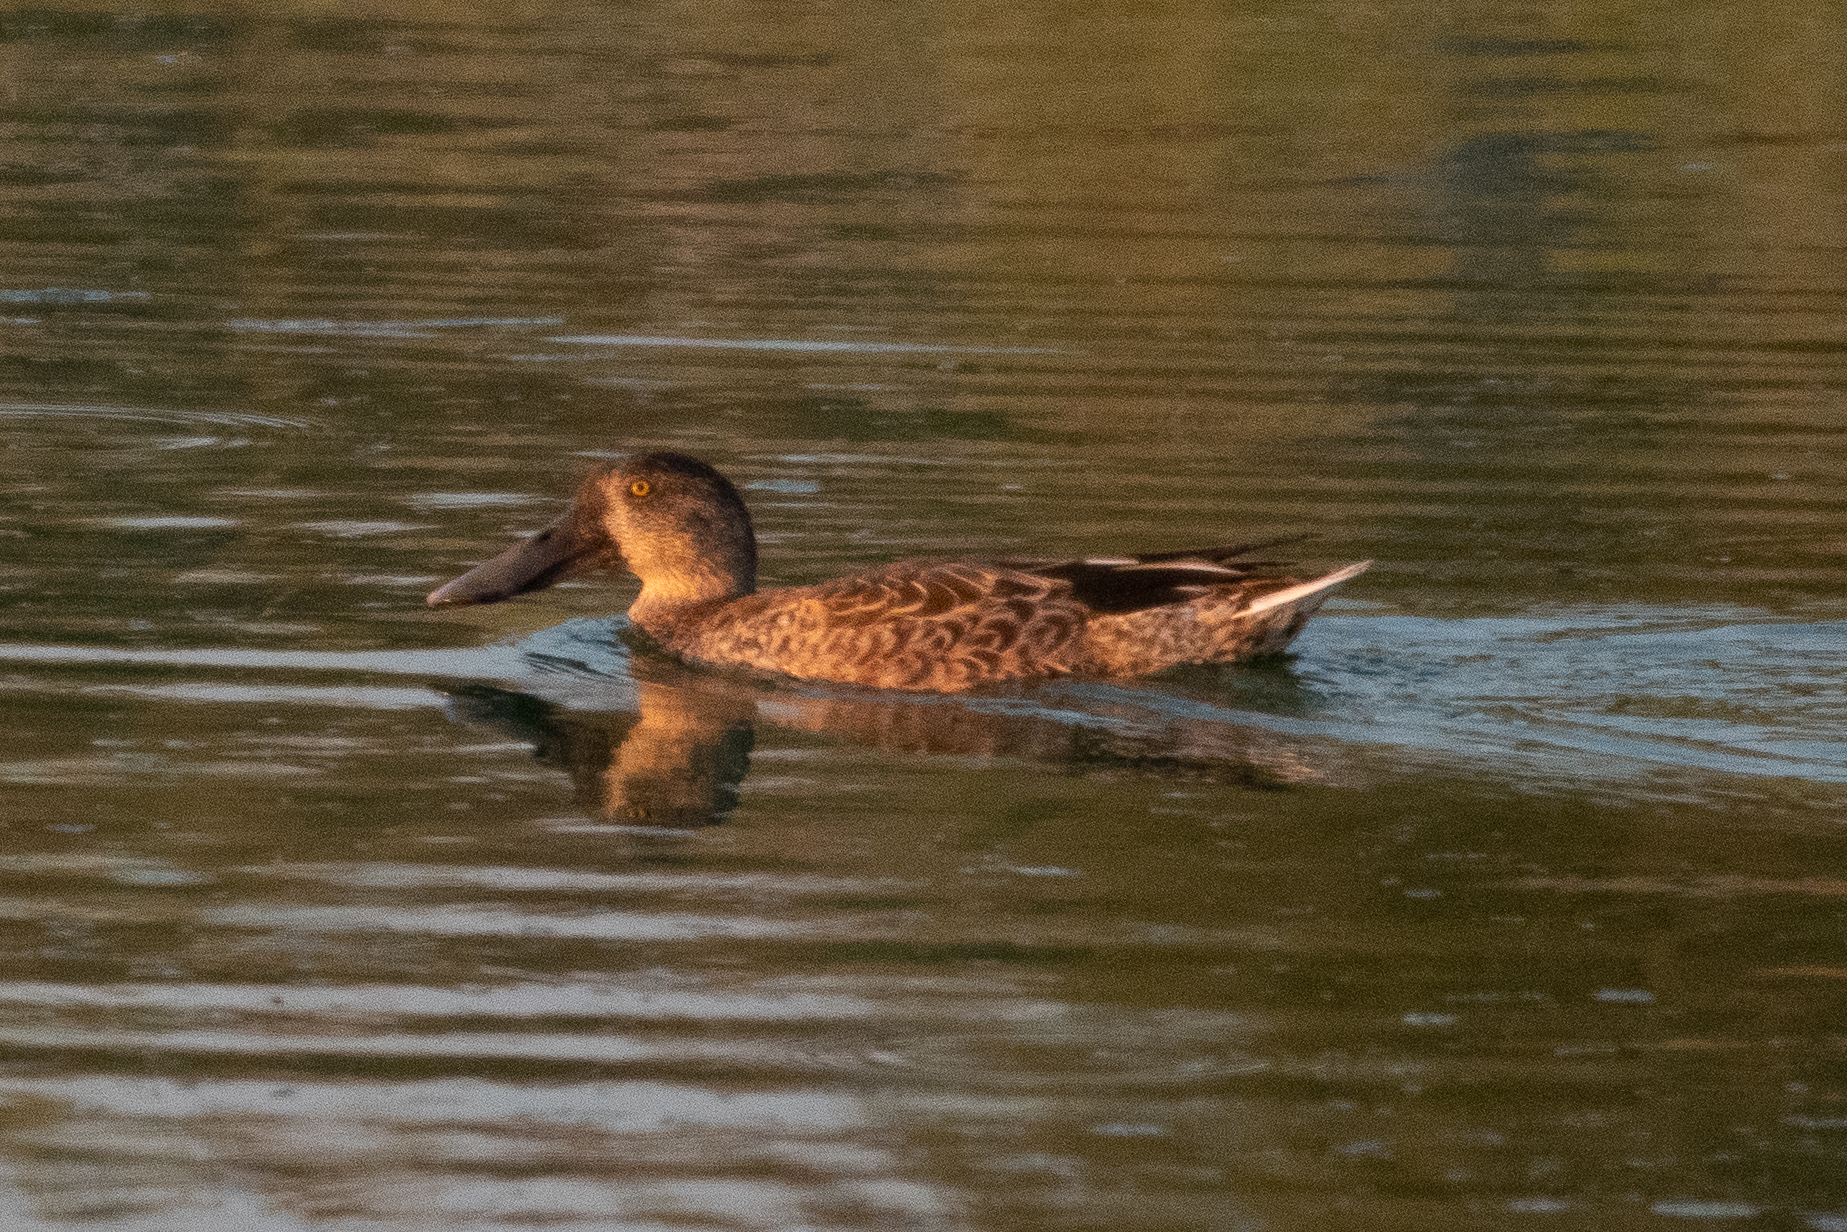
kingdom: Animalia
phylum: Chordata
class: Aves
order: Anseriformes
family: Anatidae
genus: Spatula
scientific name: Spatula clypeata
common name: Northern shoveler
